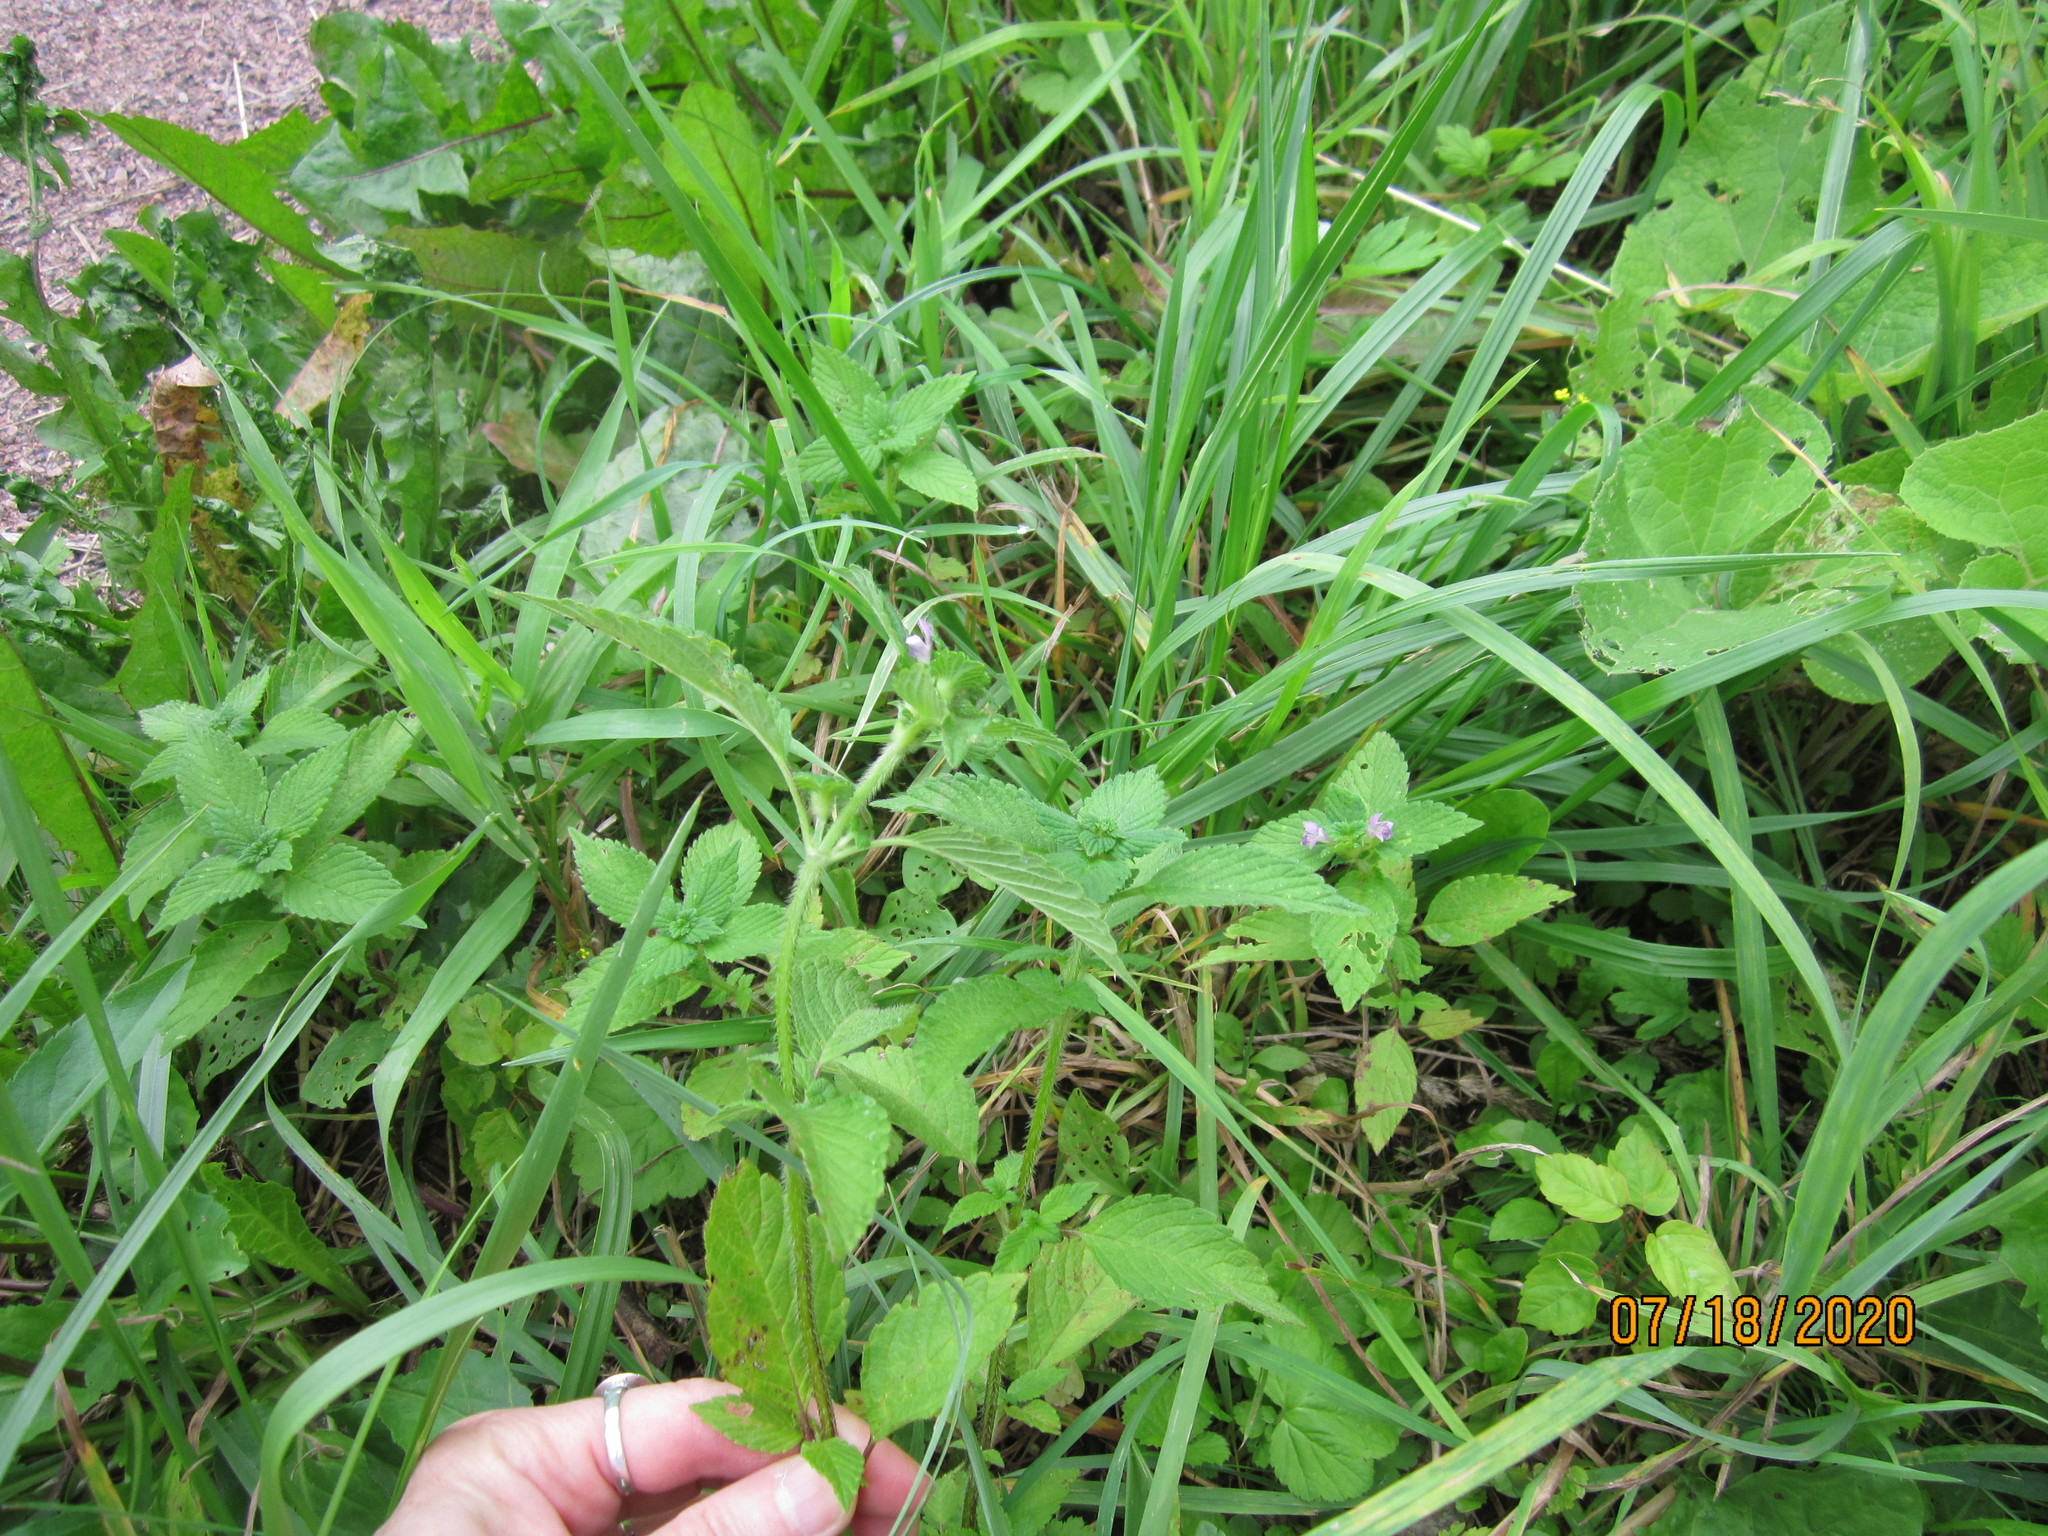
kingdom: Plantae
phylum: Tracheophyta
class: Magnoliopsida
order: Lamiales
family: Lamiaceae
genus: Galeopsis
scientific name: Galeopsis bifida
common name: Bifid hemp-nettle
